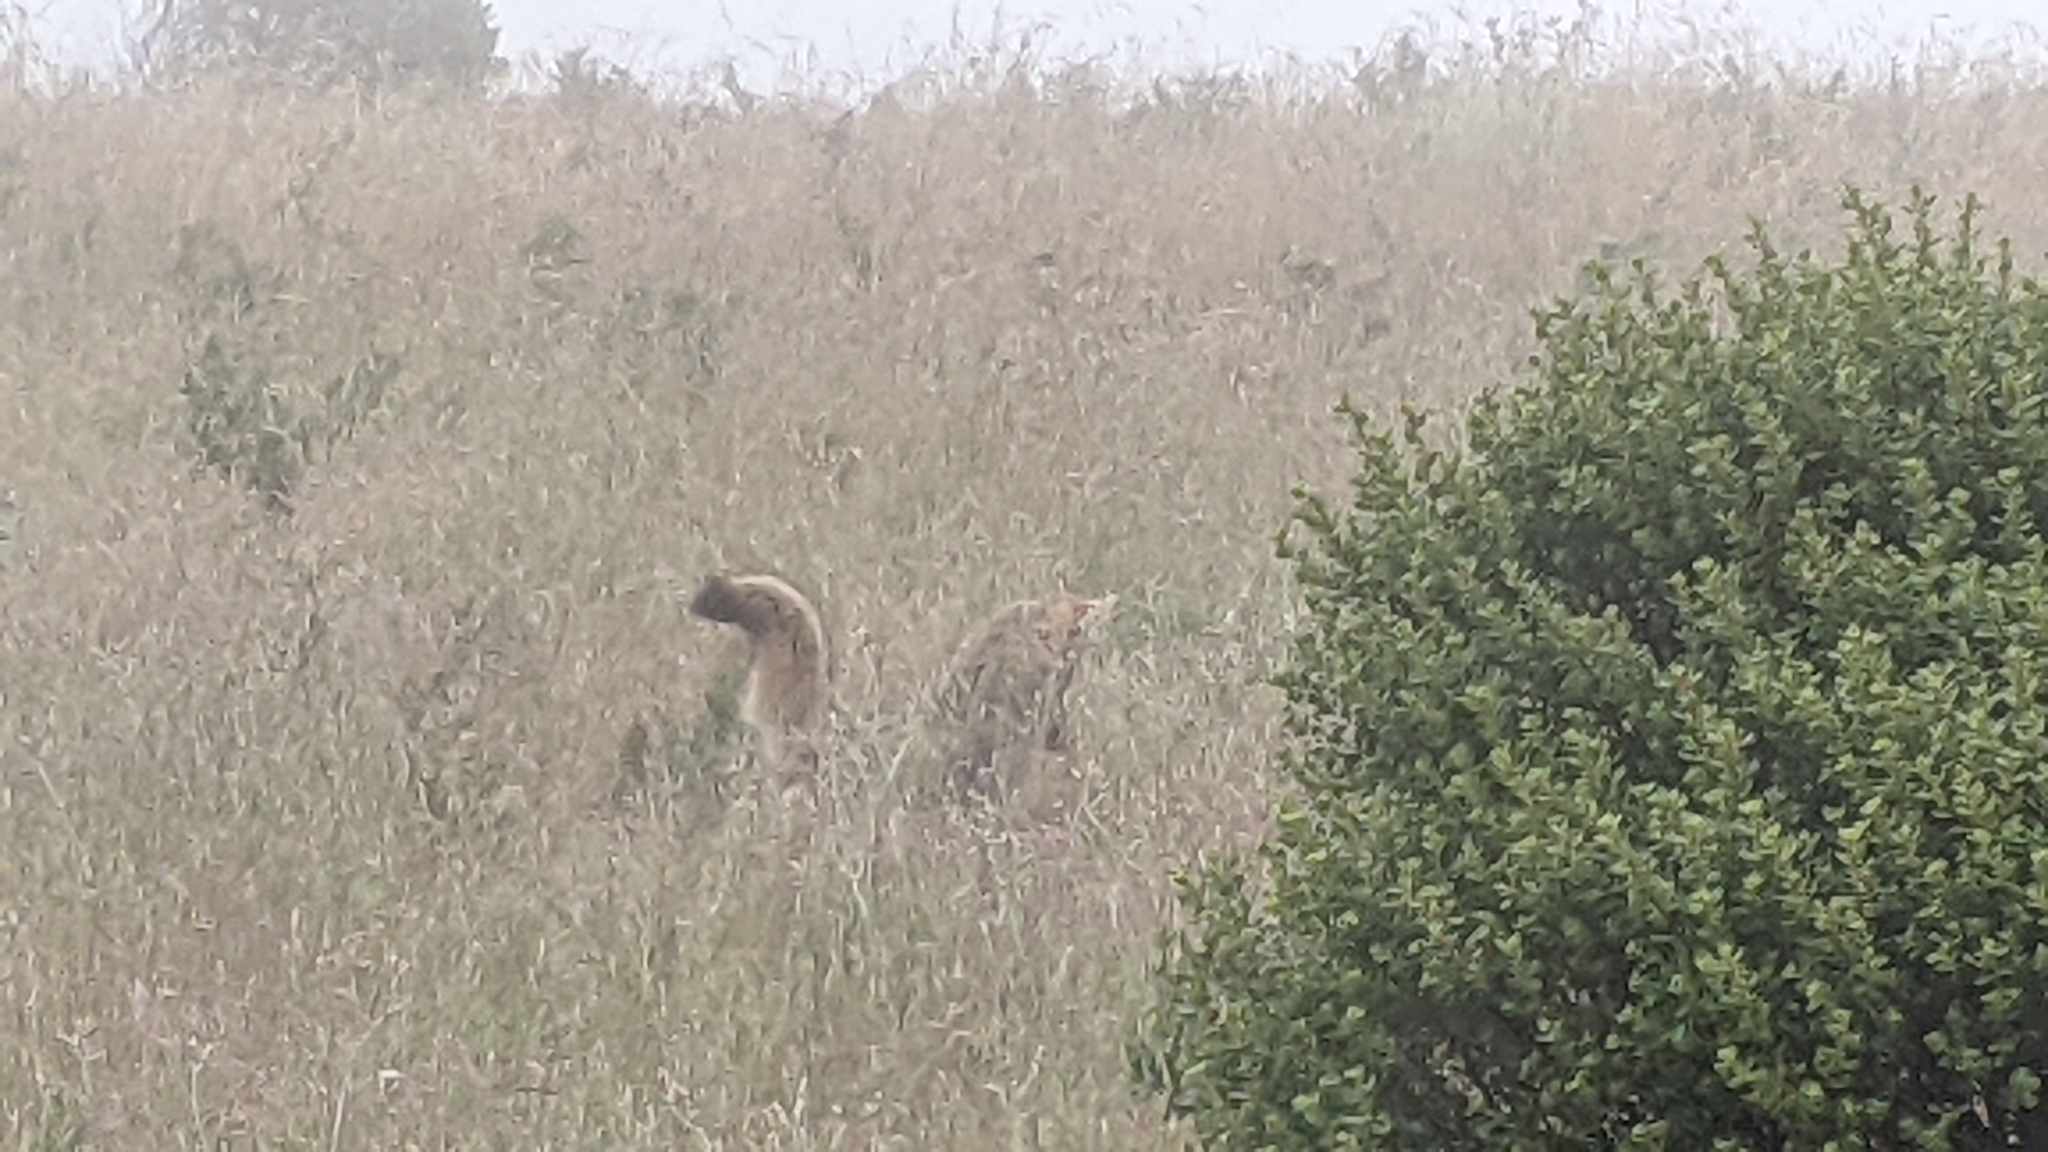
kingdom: Animalia
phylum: Chordata
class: Mammalia
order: Carnivora
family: Canidae
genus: Canis
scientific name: Canis latrans
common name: Coyote
